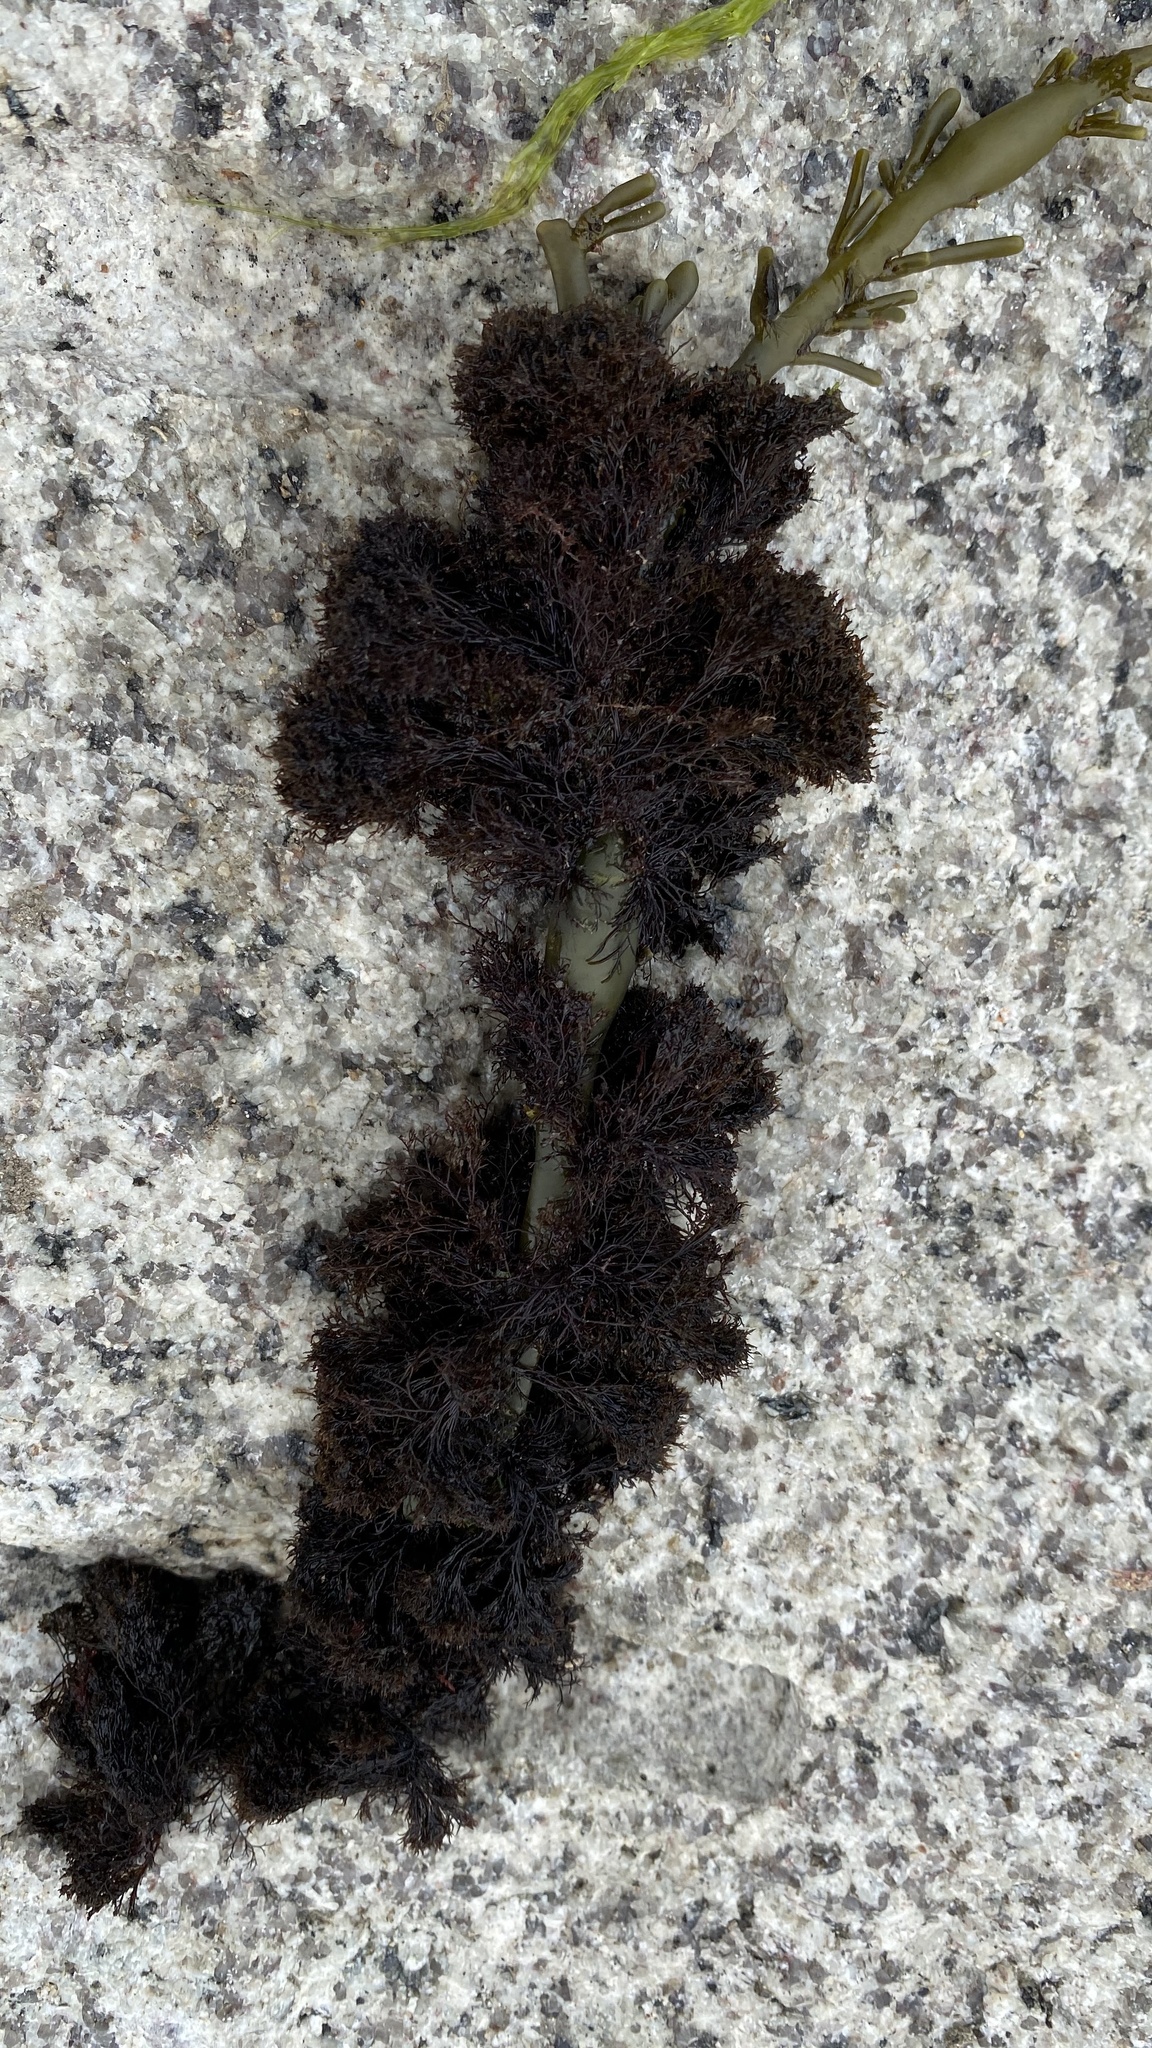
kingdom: Plantae
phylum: Rhodophyta
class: Florideophyceae
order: Ceramiales
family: Rhodomelaceae
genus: Vertebrata
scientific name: Vertebrata lanosa
